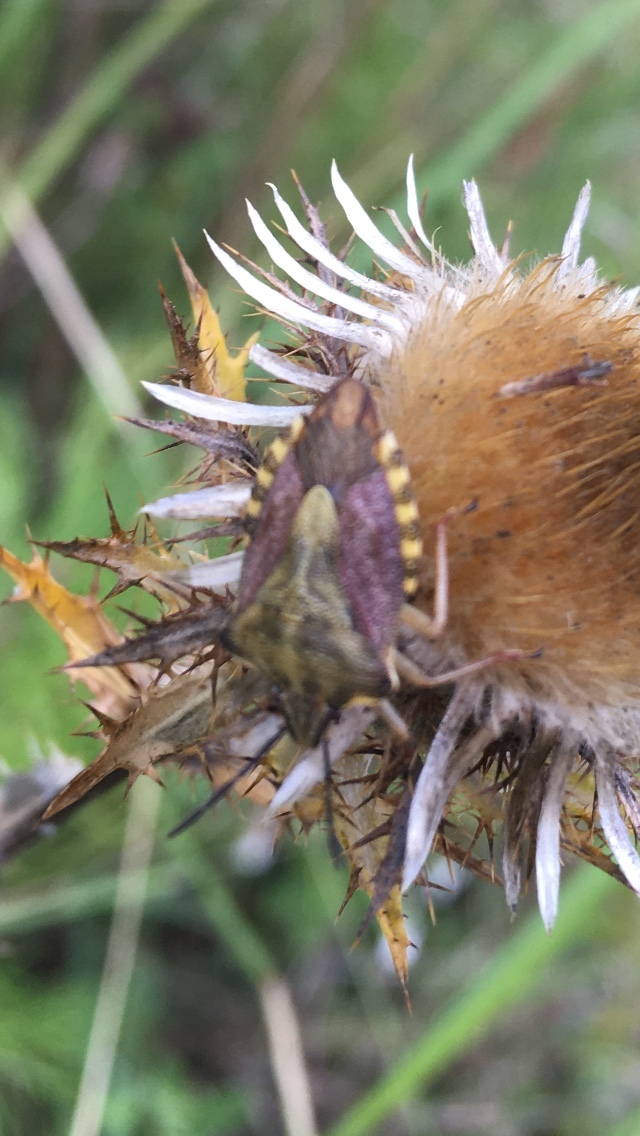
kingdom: Animalia
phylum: Arthropoda
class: Insecta
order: Hemiptera
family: Pentatomidae
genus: Carpocoris
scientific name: Carpocoris purpureipennis
